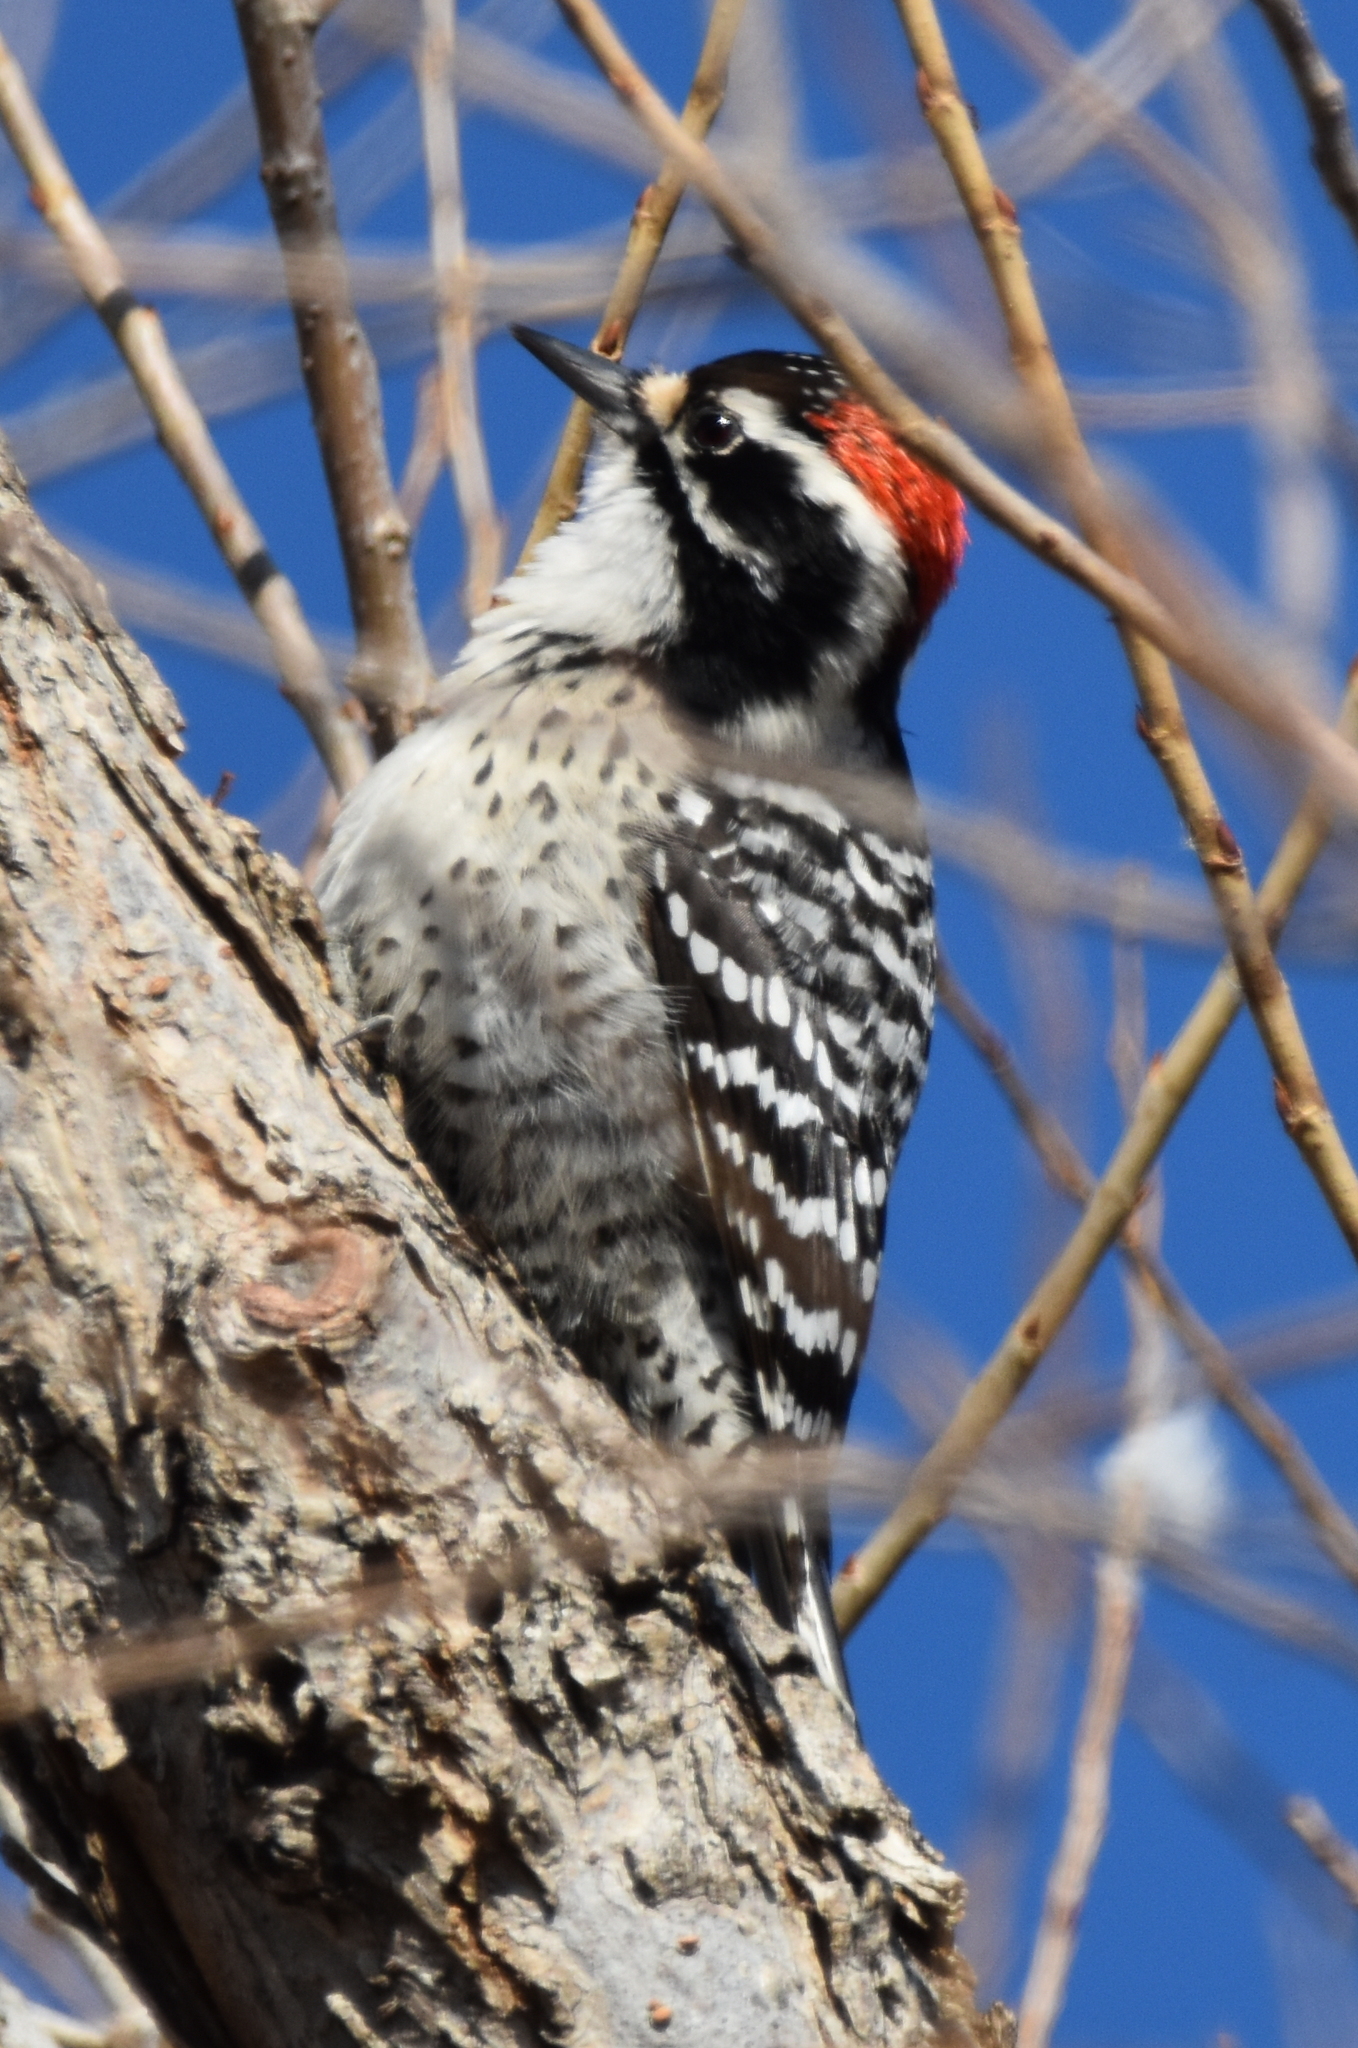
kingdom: Animalia
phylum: Chordata
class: Aves
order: Piciformes
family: Picidae
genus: Dryobates
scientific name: Dryobates nuttallii
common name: Nuttall's woodpecker
